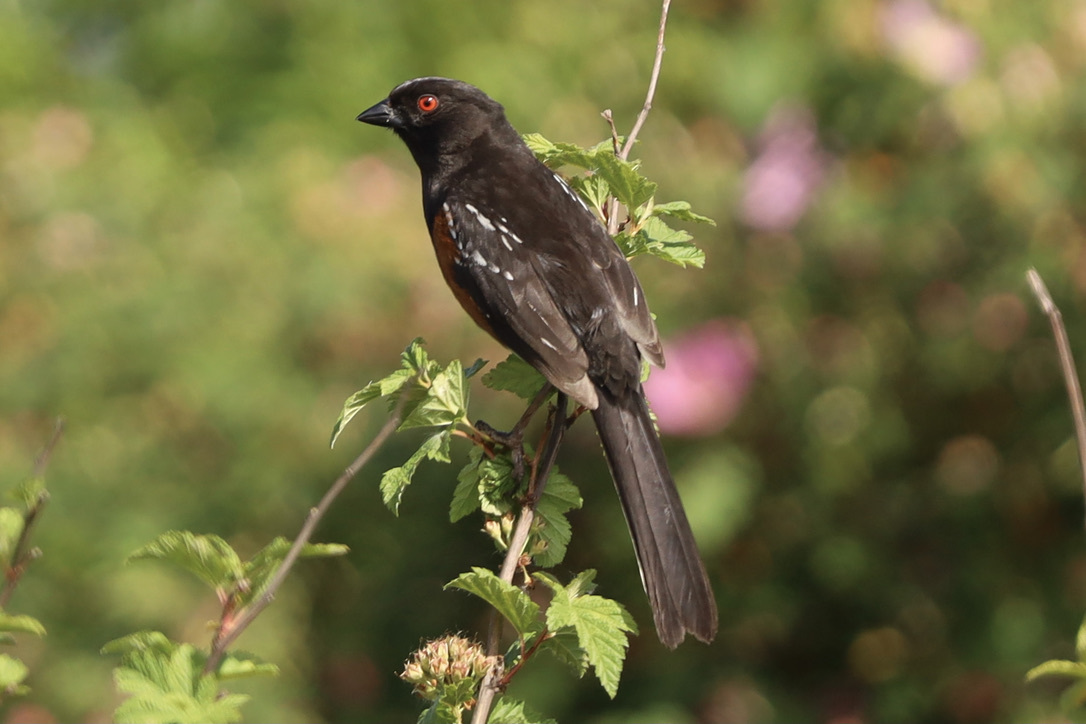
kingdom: Animalia
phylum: Chordata
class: Aves
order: Passeriformes
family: Passerellidae
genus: Pipilo
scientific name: Pipilo maculatus
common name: Spotted towhee
